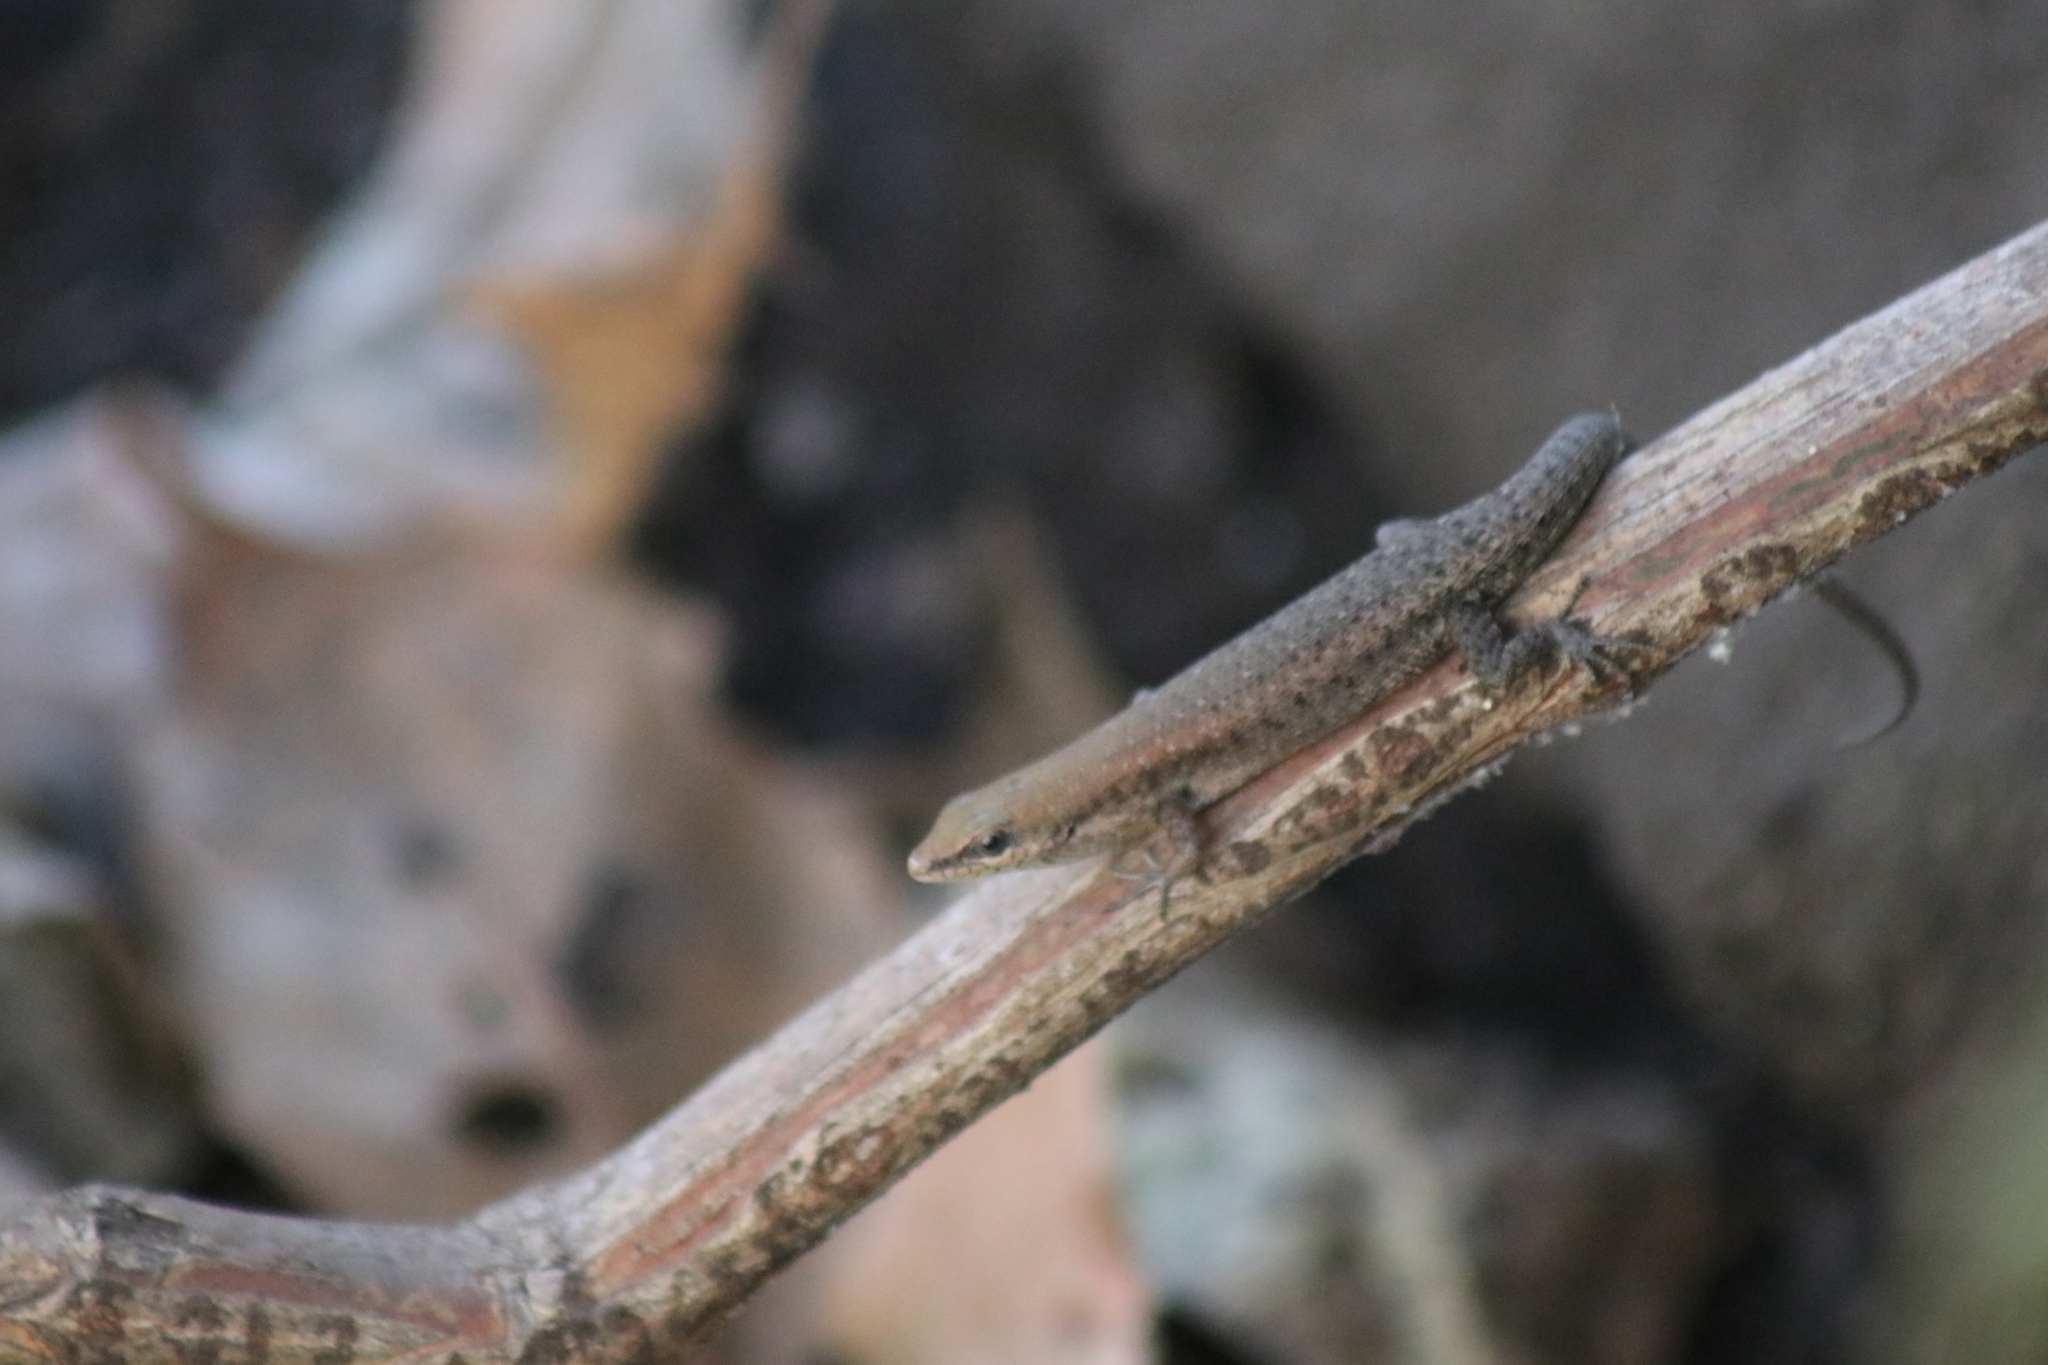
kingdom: Animalia
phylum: Chordata
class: Squamata
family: Scincidae
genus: Carlia
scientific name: Carlia amax
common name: Bauxite rainbow-skink
